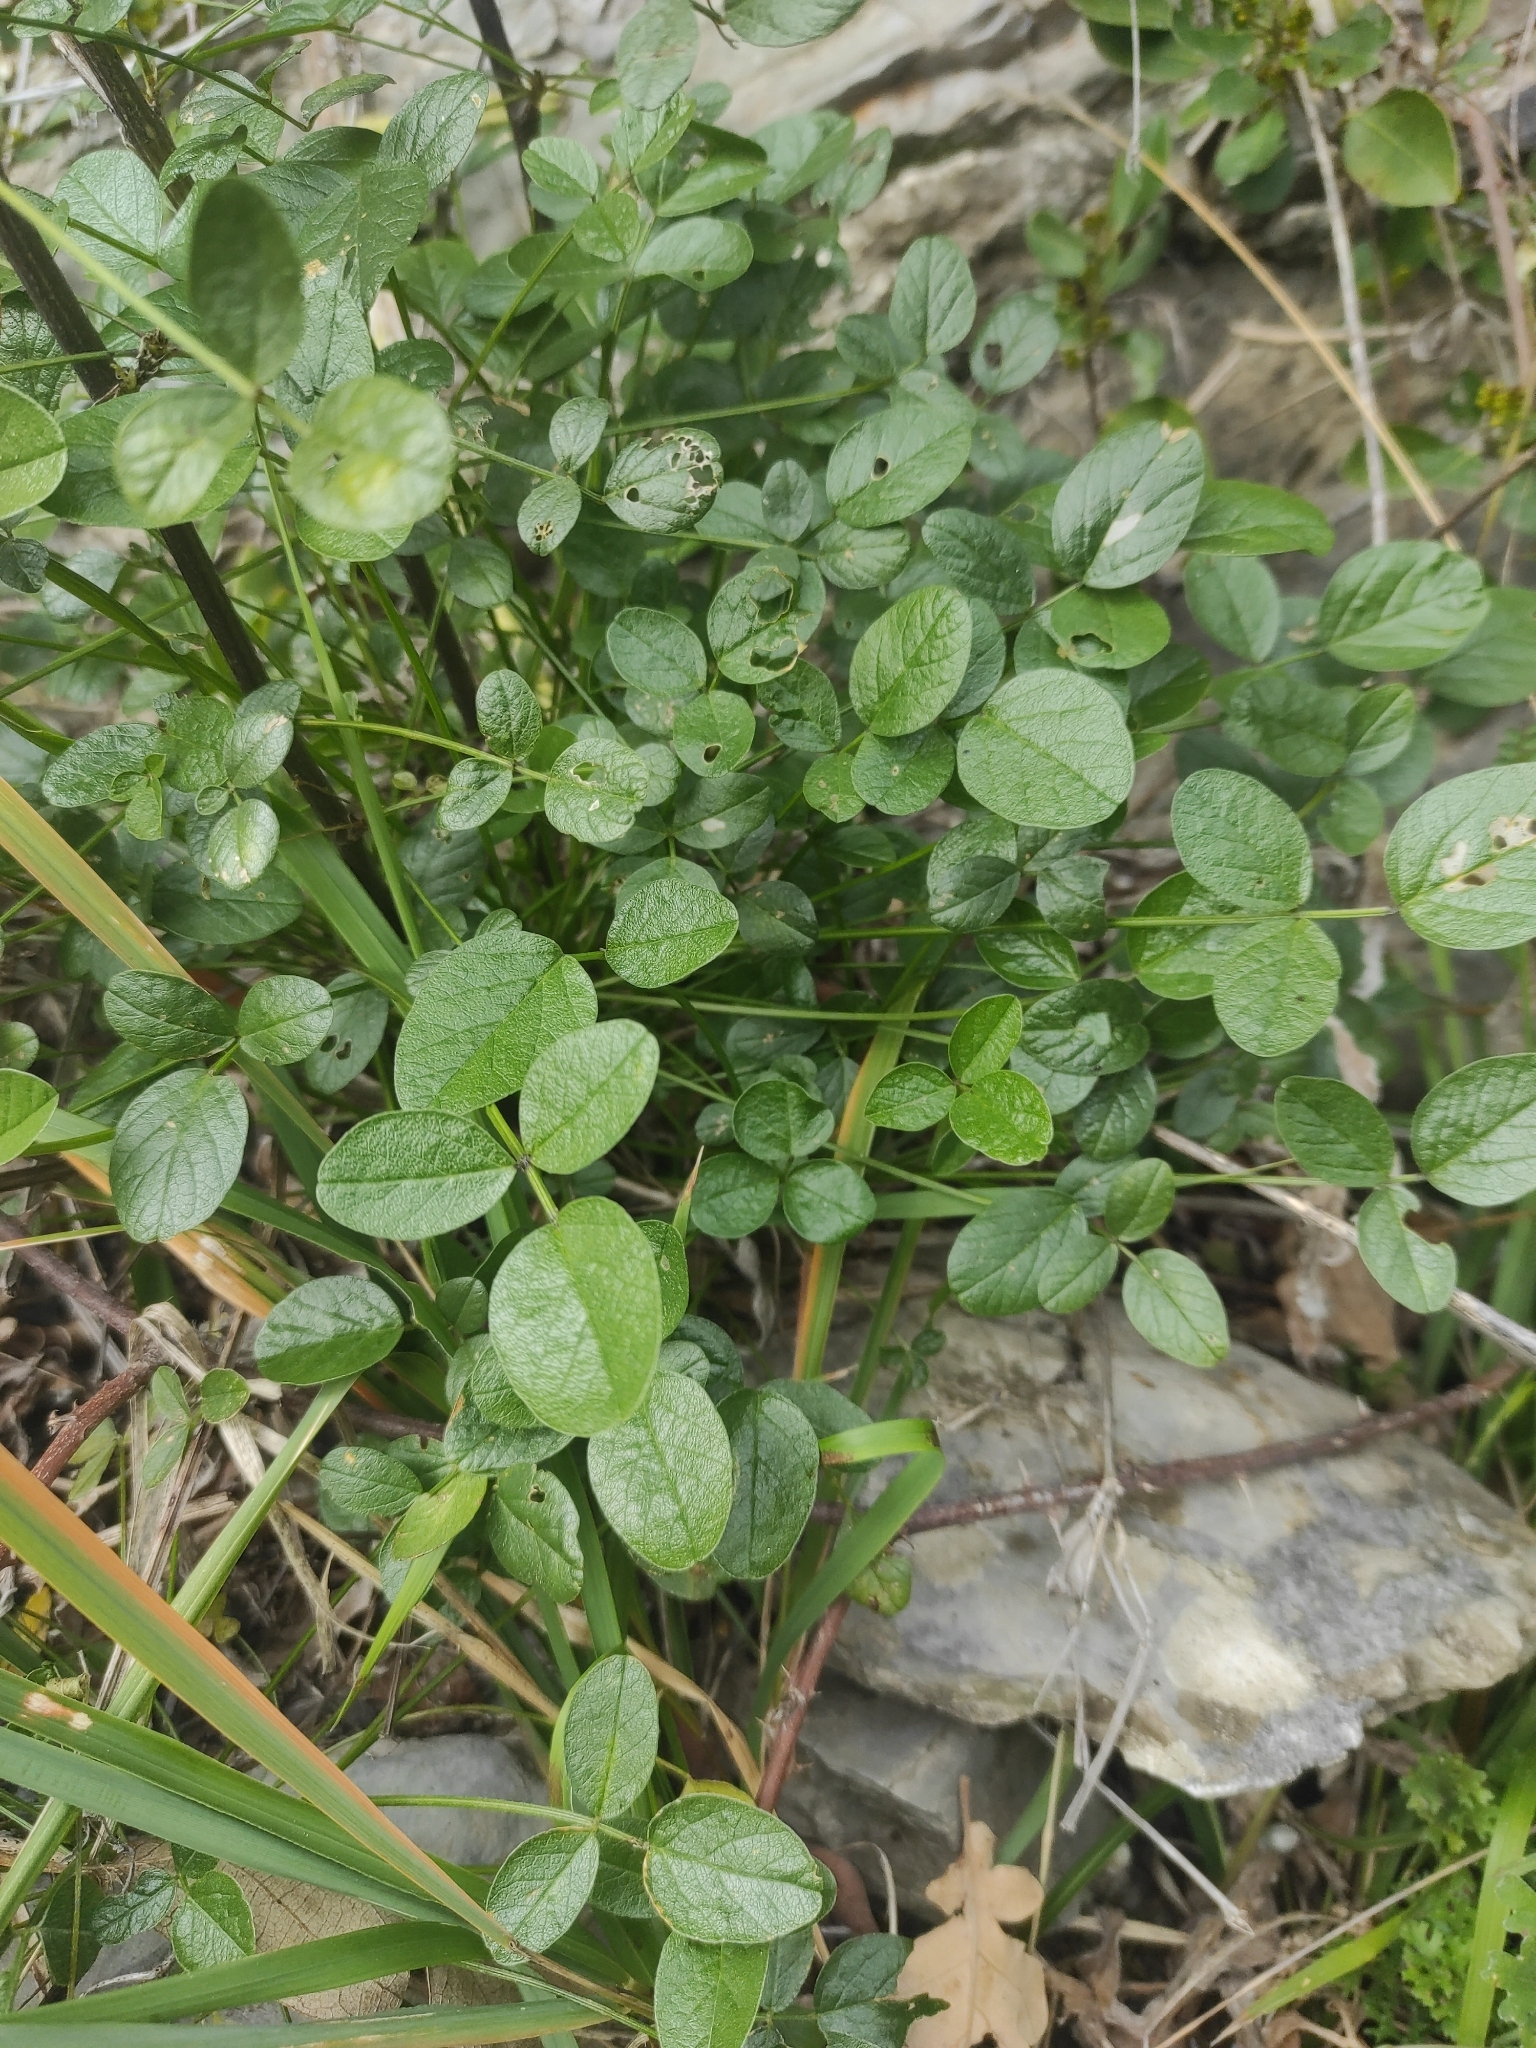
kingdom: Plantae
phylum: Tracheophyta
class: Magnoliopsida
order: Fabales
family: Fabaceae
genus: Bituminaria
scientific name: Bituminaria bituminosa
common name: Arabian pea
